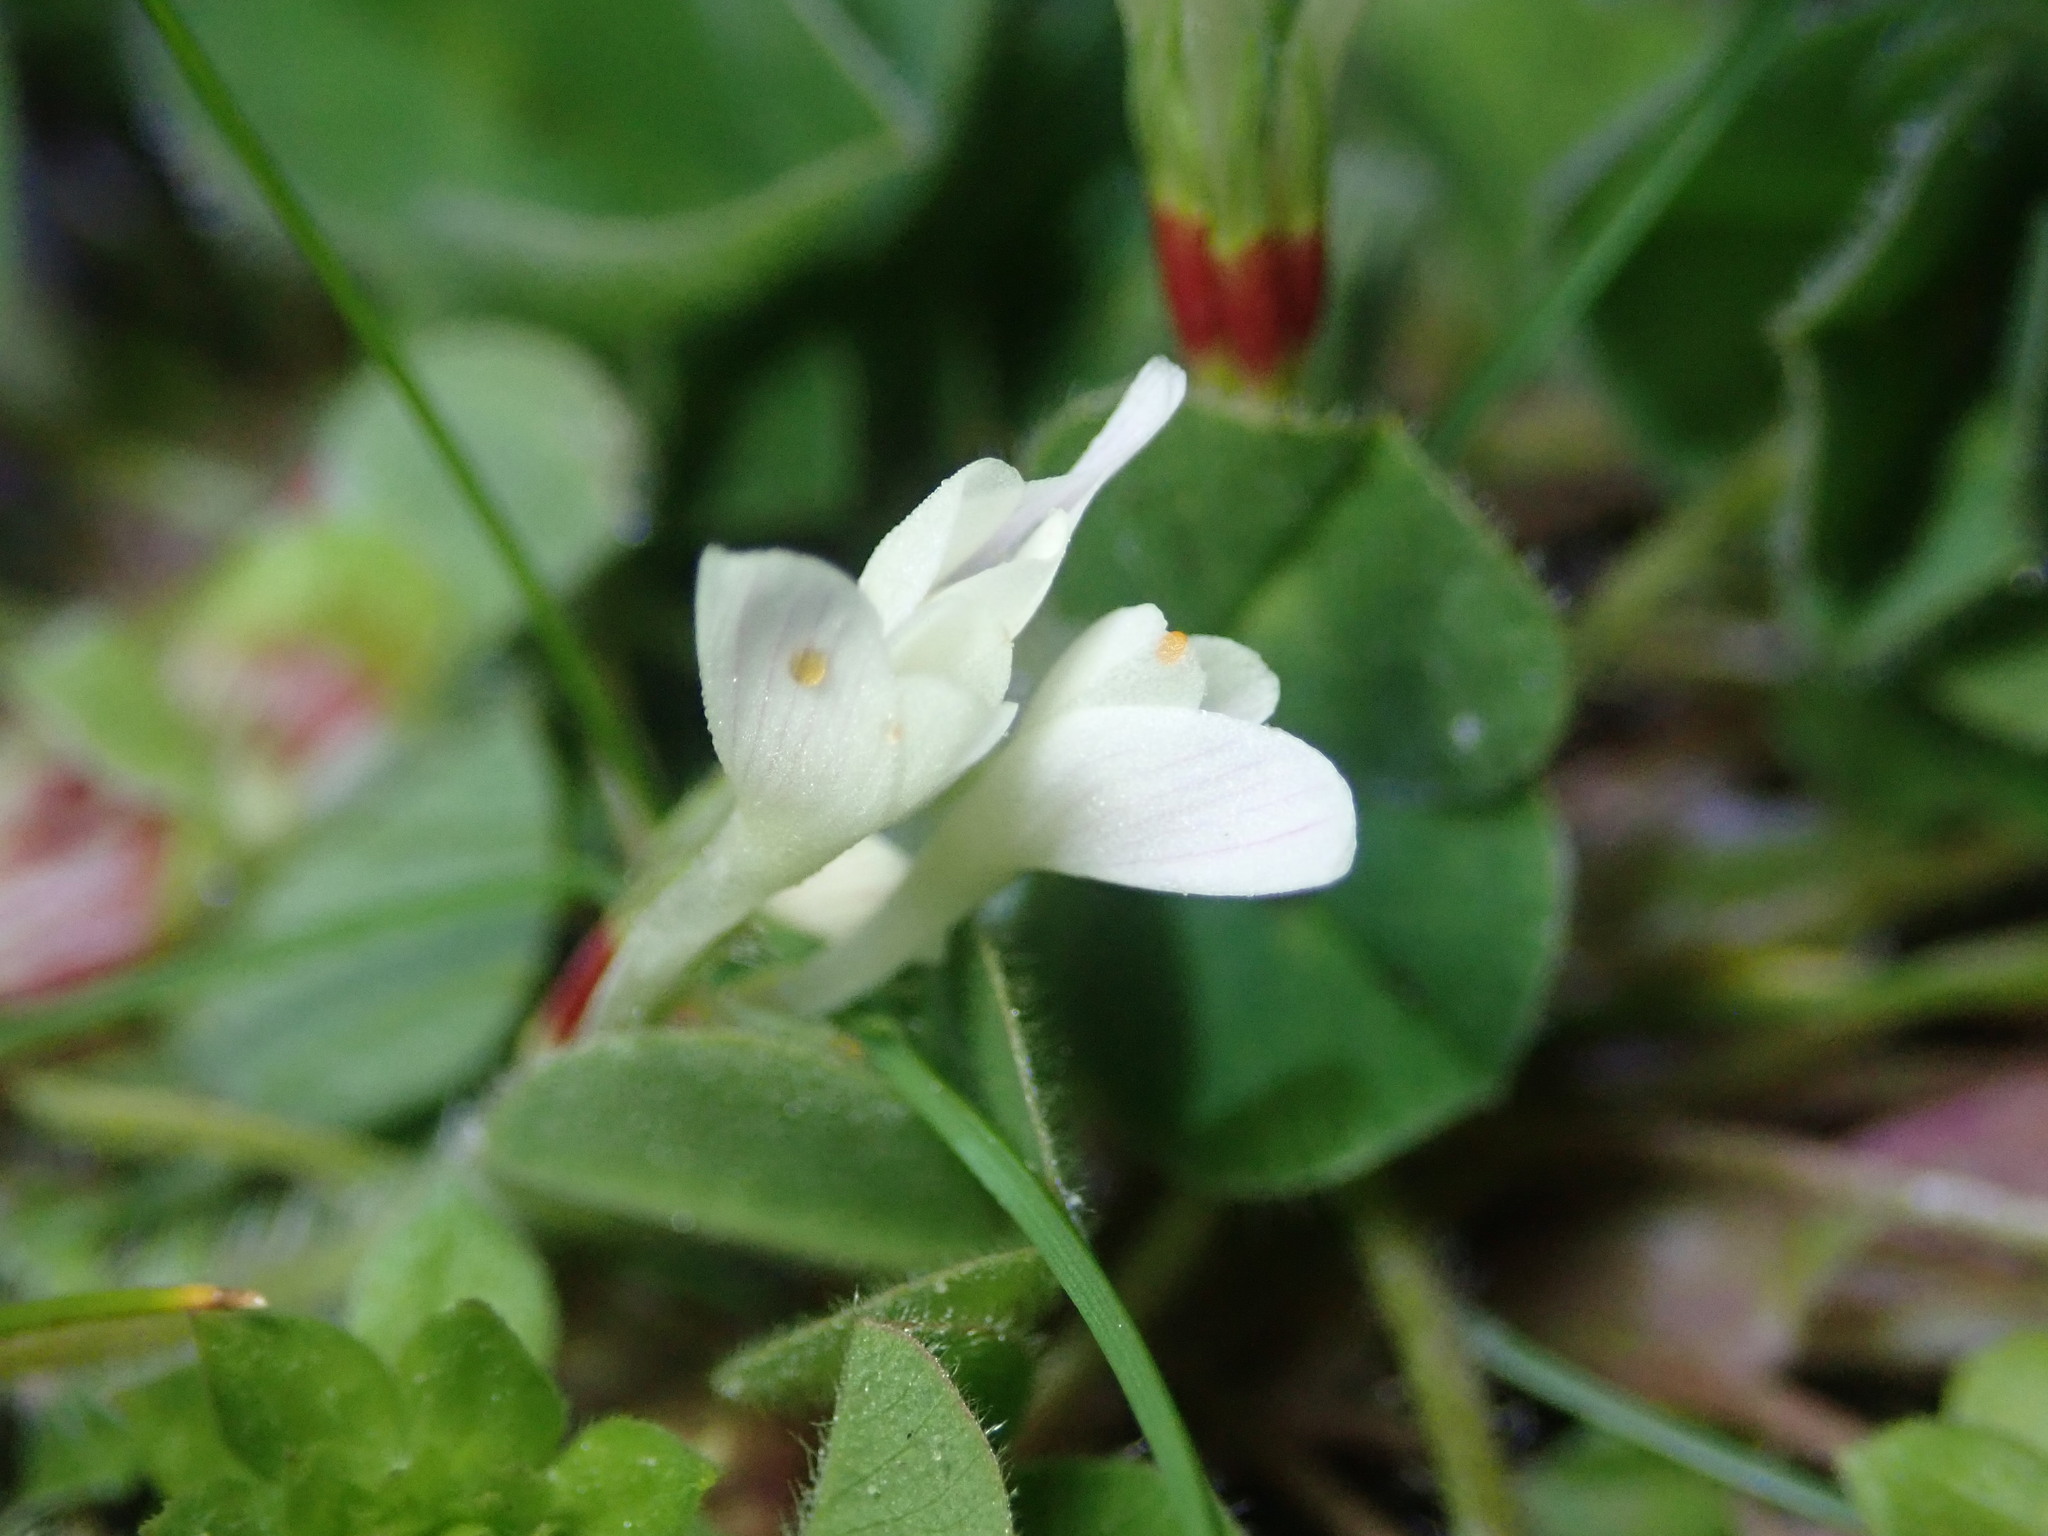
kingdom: Plantae
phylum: Tracheophyta
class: Magnoliopsida
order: Fabales
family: Fabaceae
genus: Trifolium
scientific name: Trifolium subterraneum
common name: Subterranean clover
